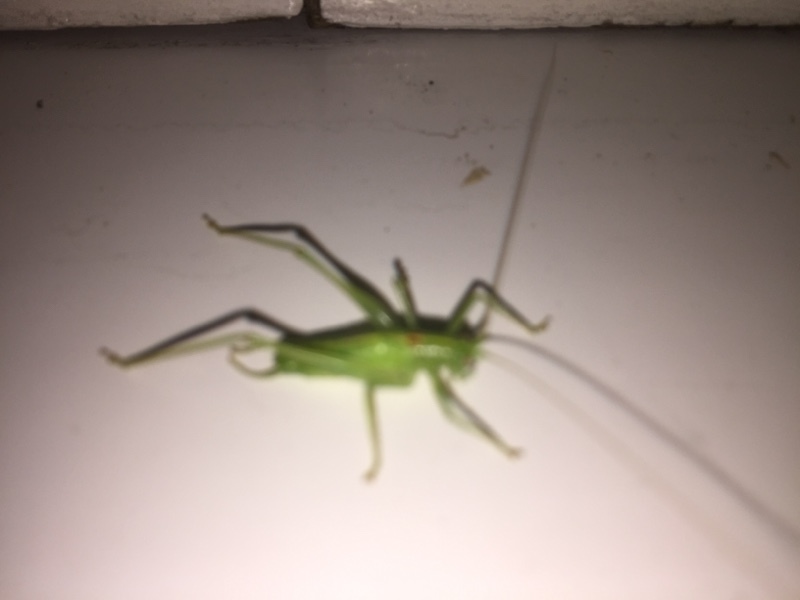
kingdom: Animalia
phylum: Arthropoda
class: Insecta
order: Orthoptera
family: Tettigoniidae
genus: Meconema
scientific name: Meconema meridionale
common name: Southern oak bush-cricket
